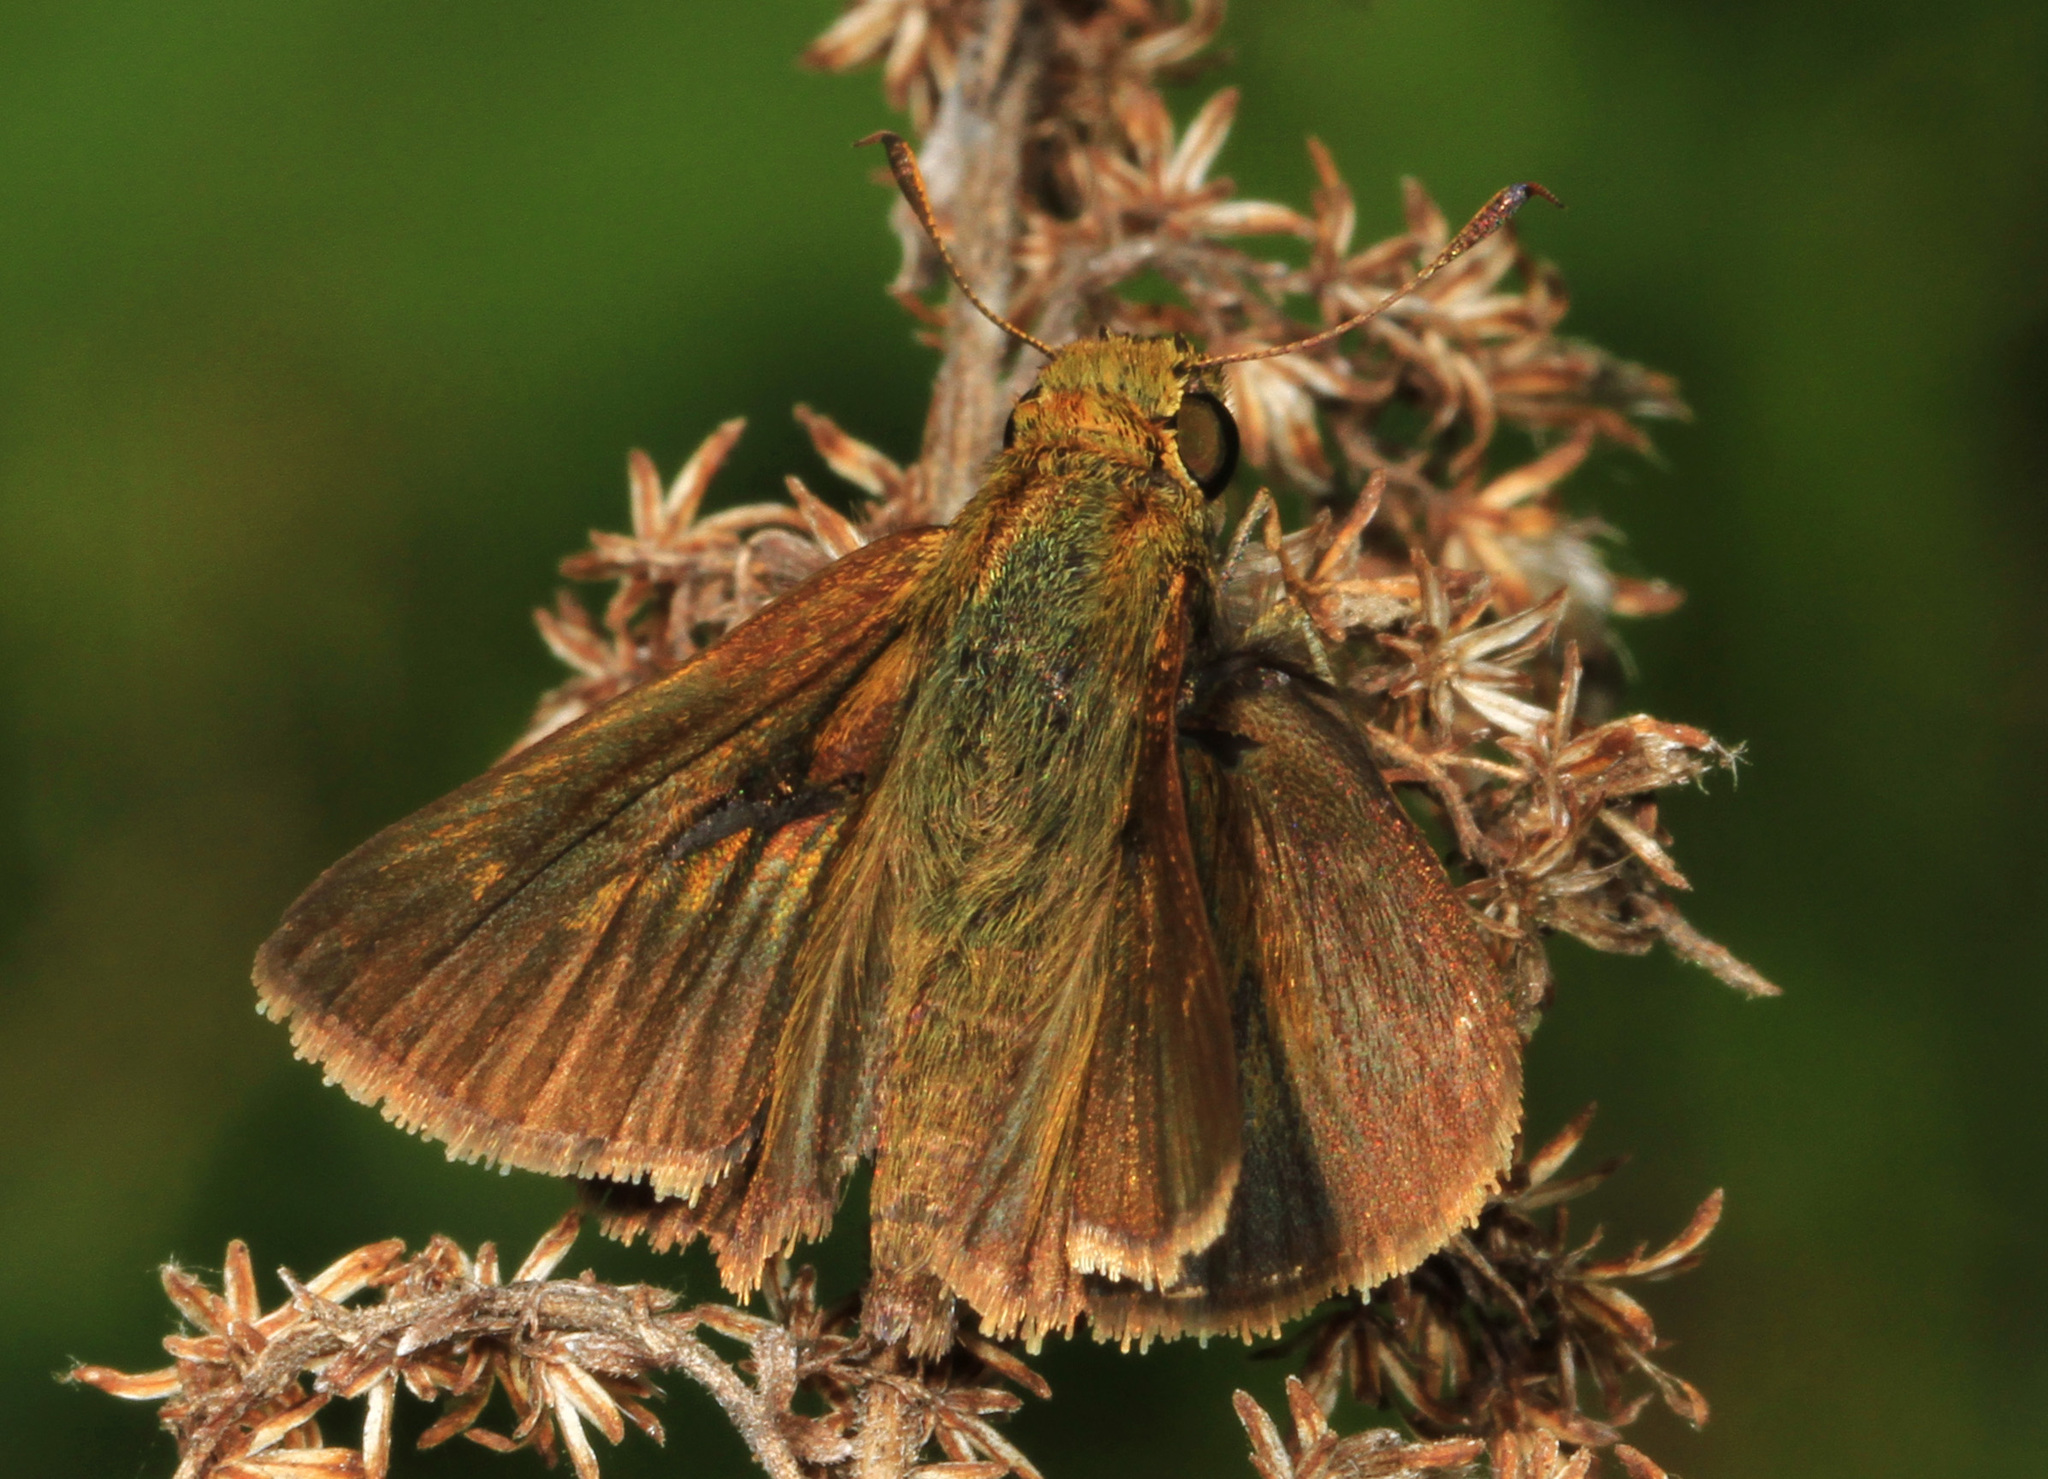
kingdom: Animalia
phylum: Arthropoda
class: Insecta
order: Lepidoptera
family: Hesperiidae
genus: Euphyes
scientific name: Euphyes vestris
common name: Dun skipper
